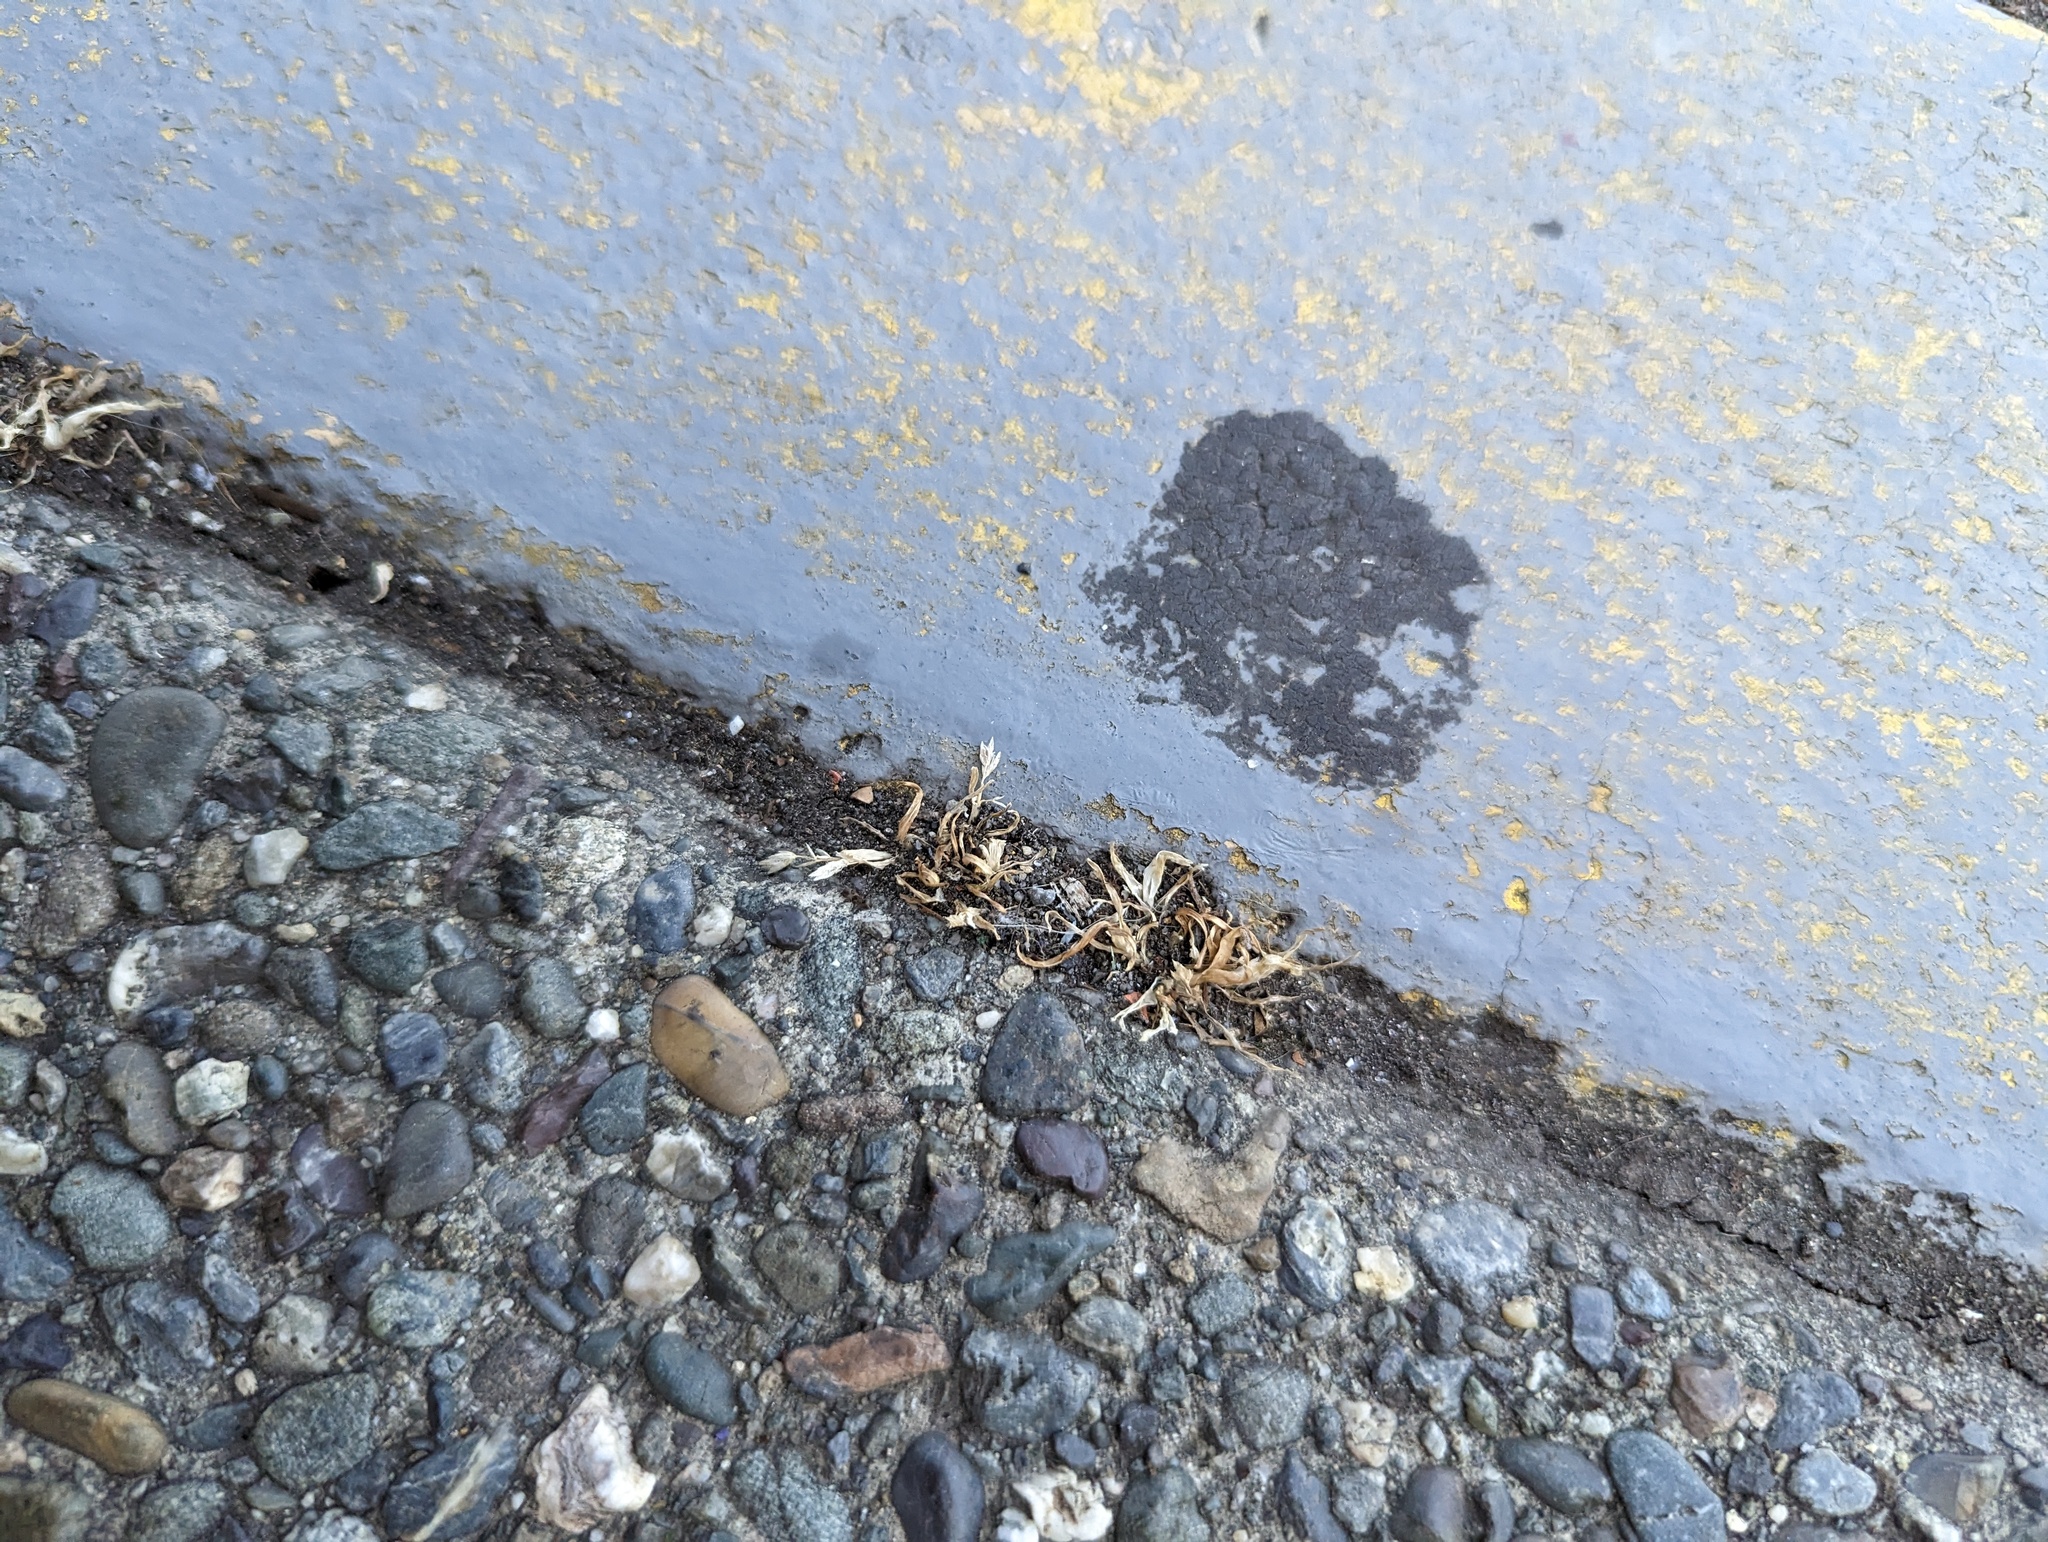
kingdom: Animalia
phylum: Arthropoda
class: Insecta
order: Hymenoptera
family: Formicidae
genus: Linepithema
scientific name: Linepithema humile
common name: Argentine ant
